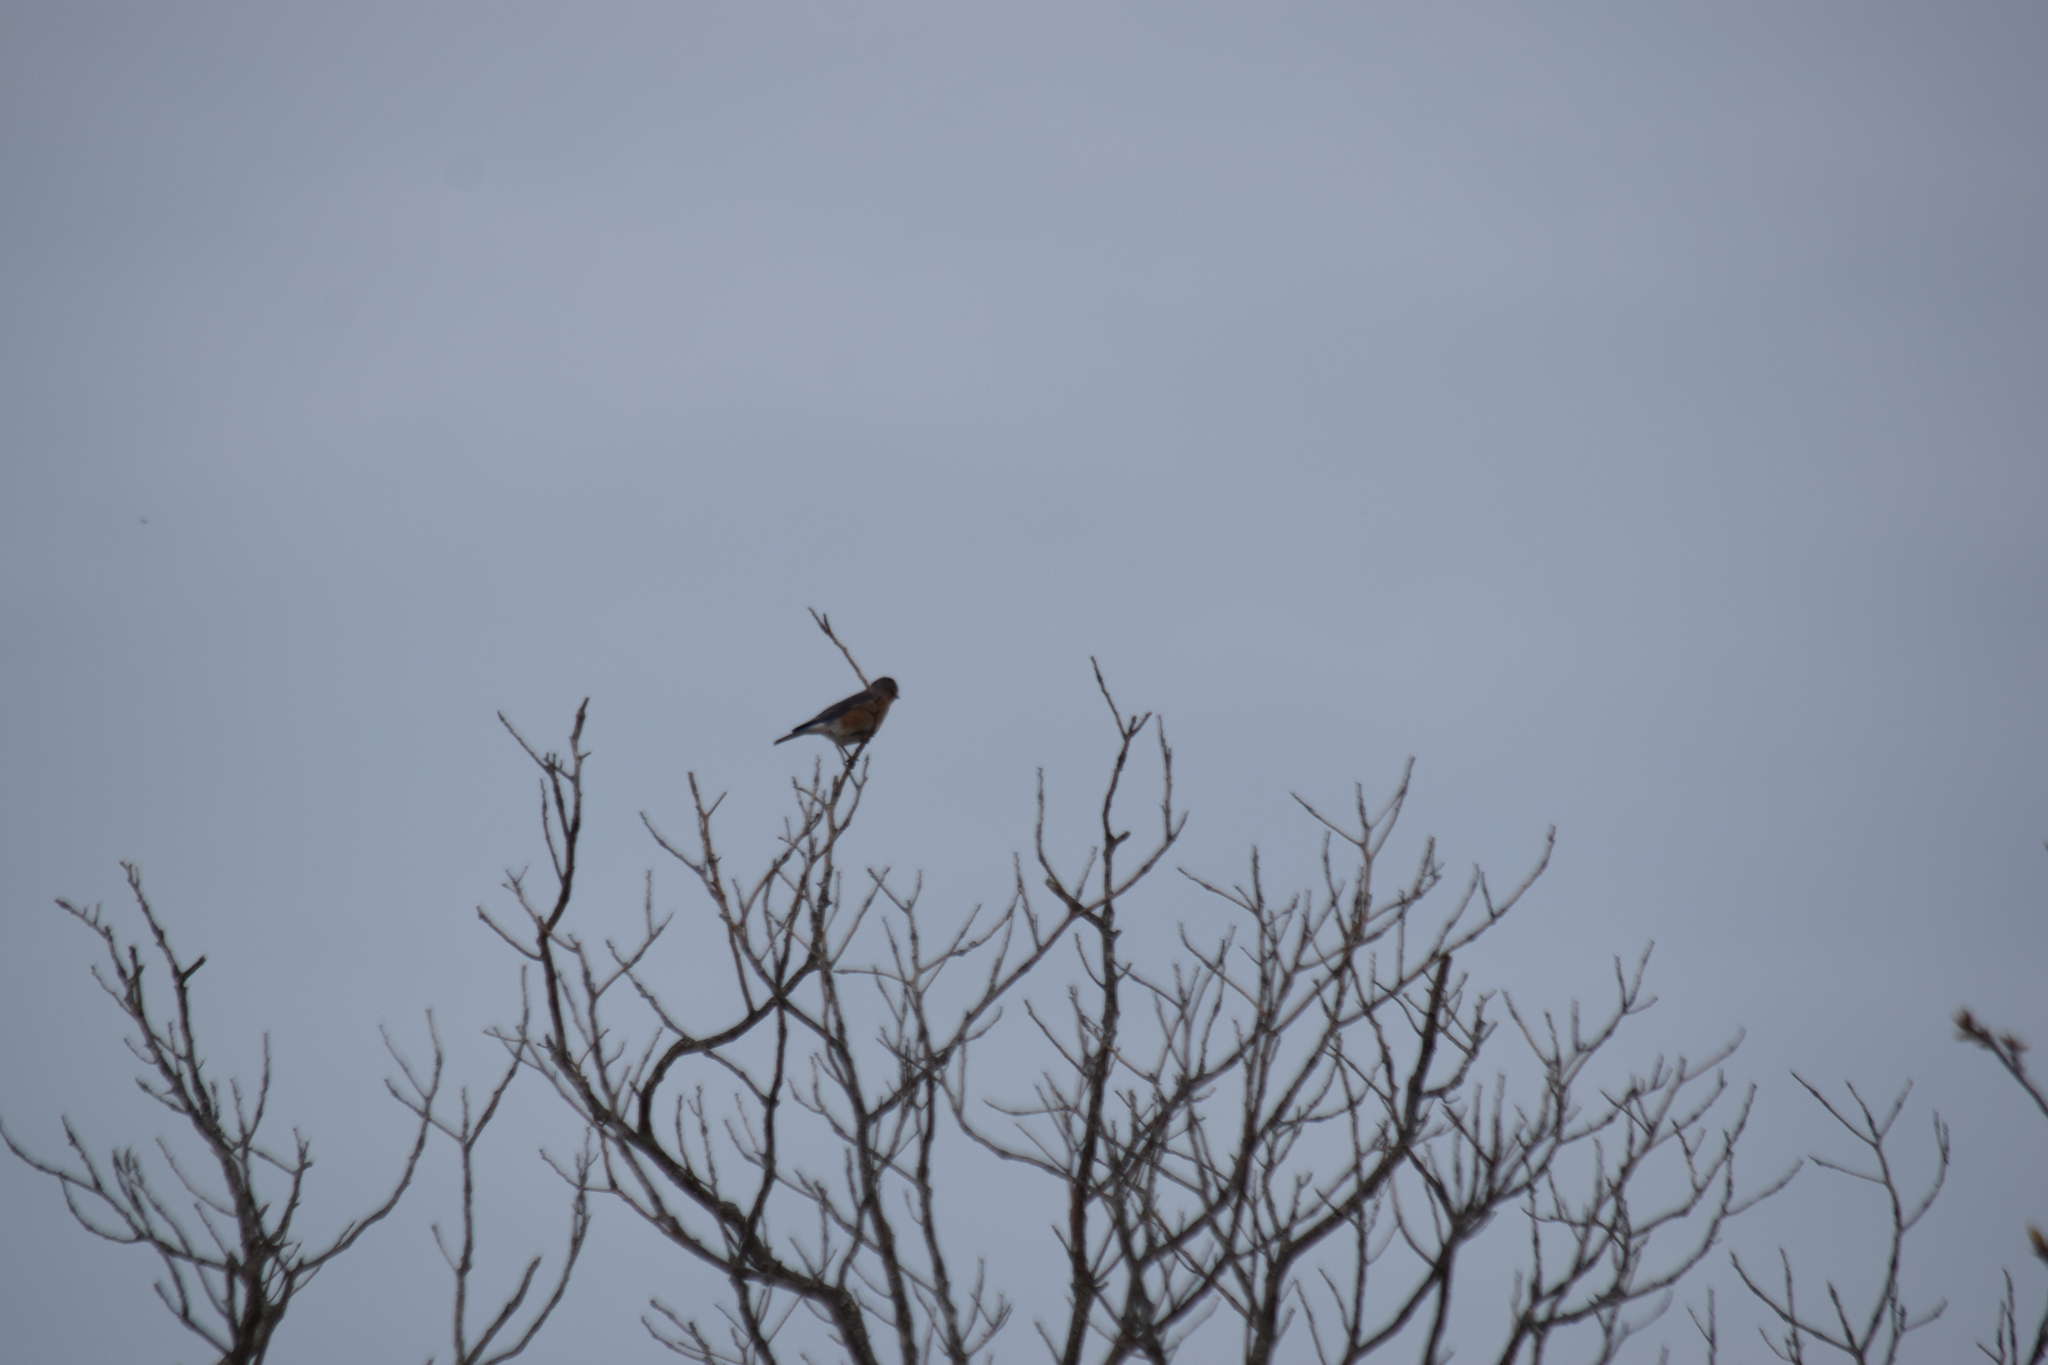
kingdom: Animalia
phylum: Chordata
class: Aves
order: Passeriformes
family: Turdidae
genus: Sialia
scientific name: Sialia sialis
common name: Eastern bluebird
